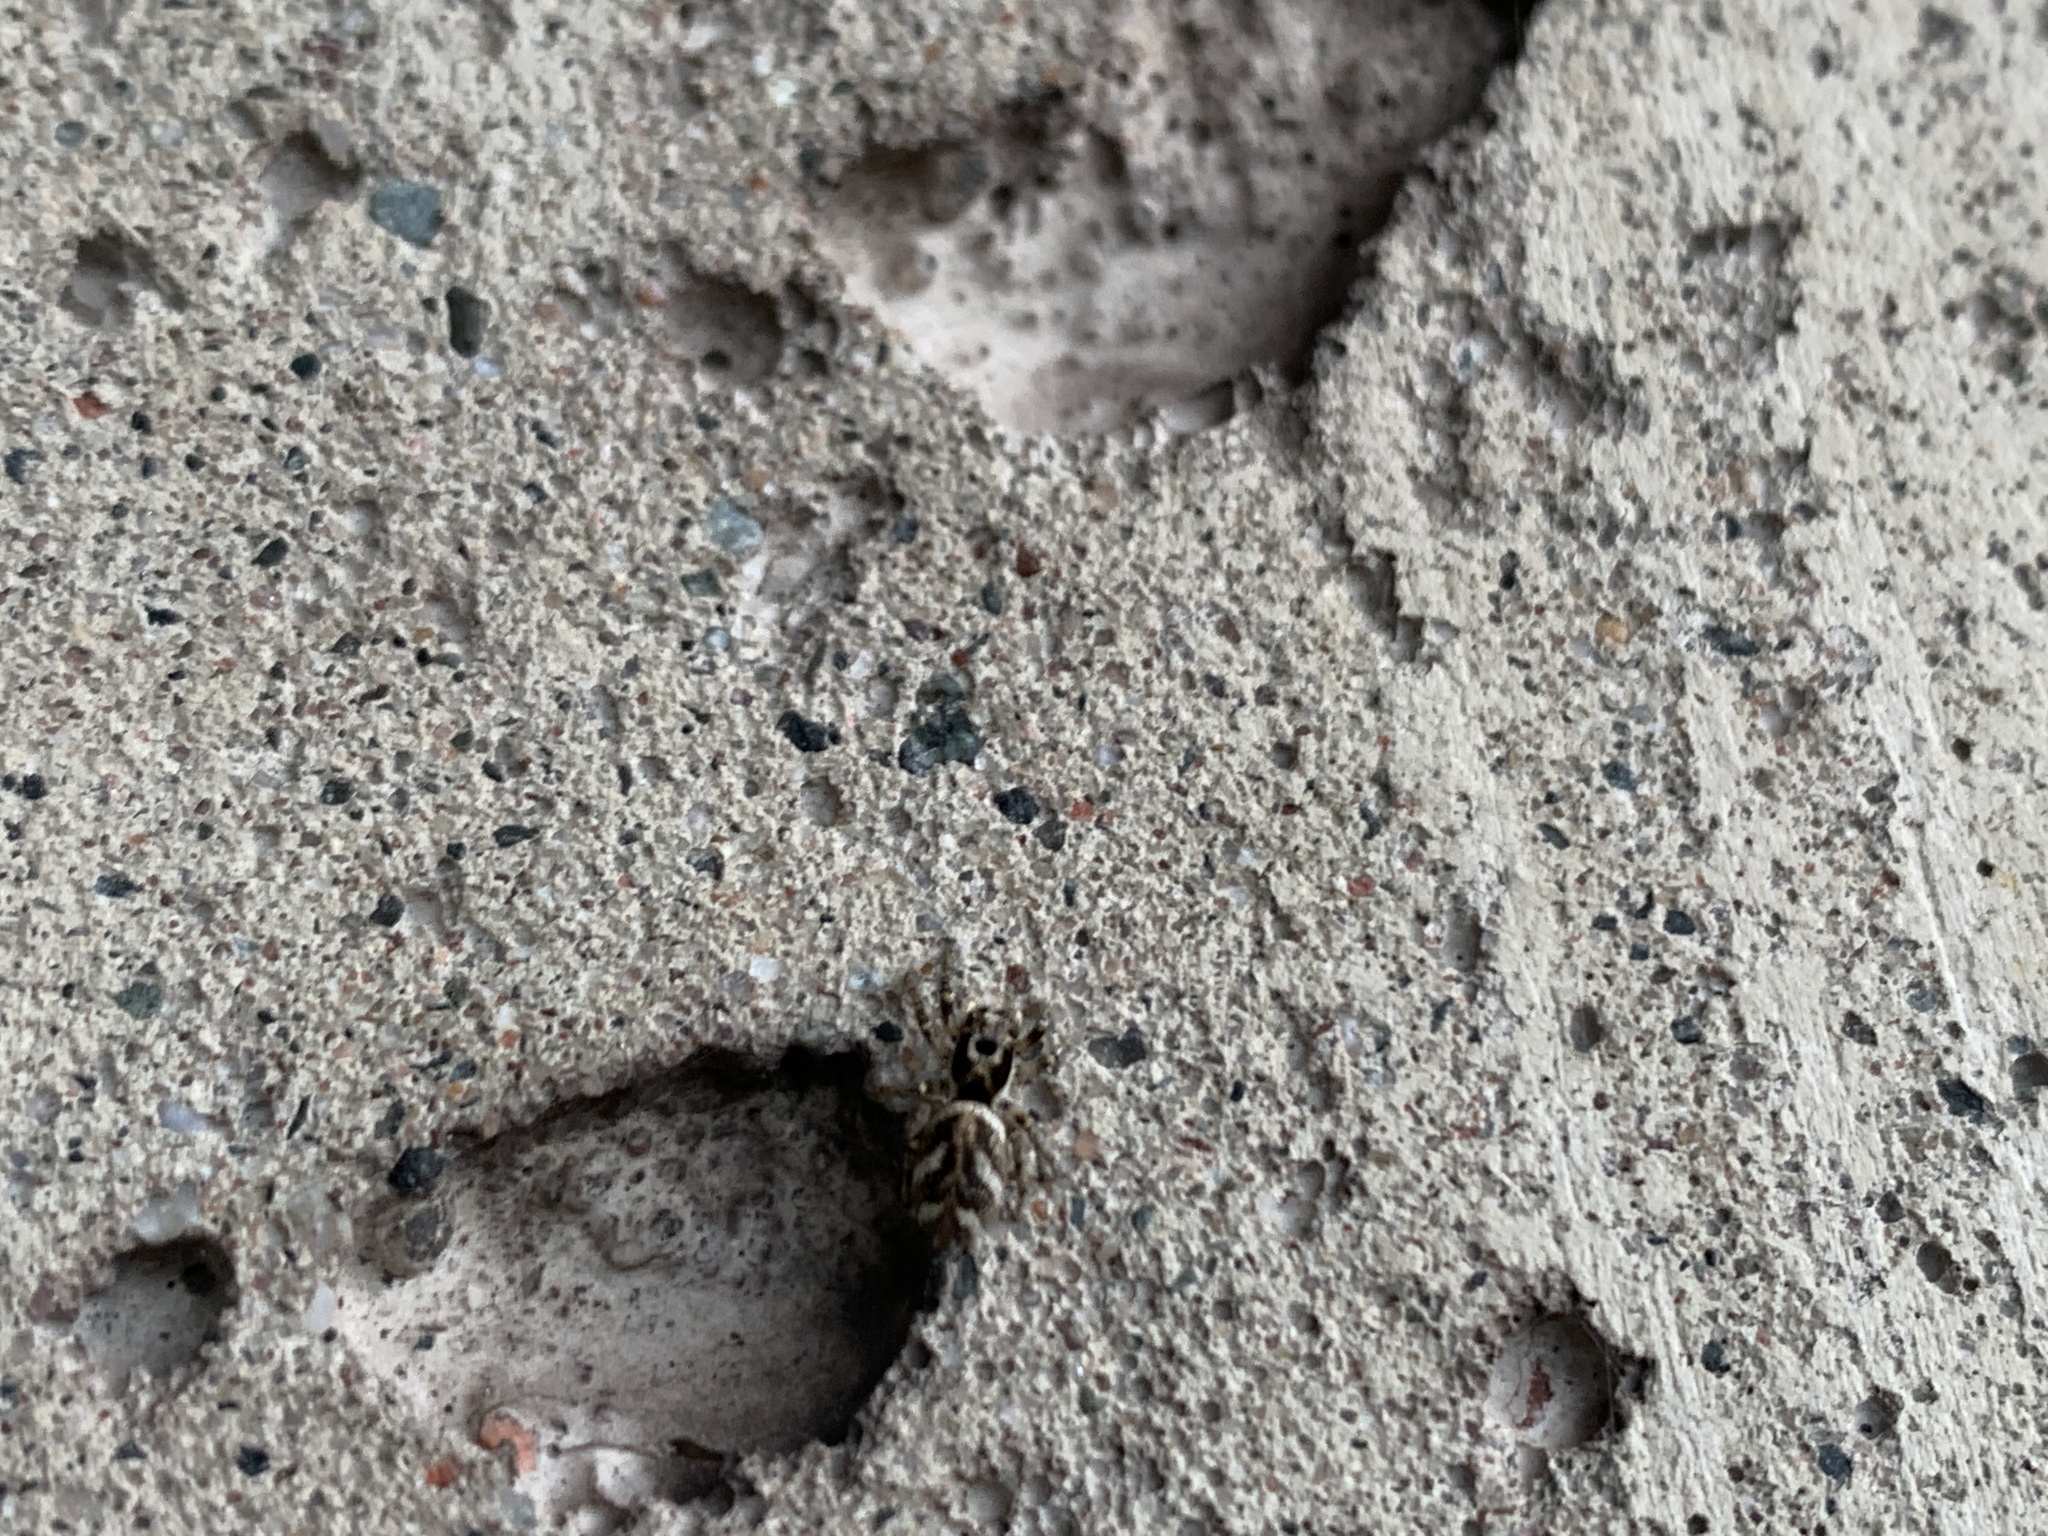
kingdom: Animalia
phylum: Arthropoda
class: Arachnida
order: Araneae
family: Salticidae
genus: Salticus
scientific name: Salticus scenicus
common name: Zebra jumper
